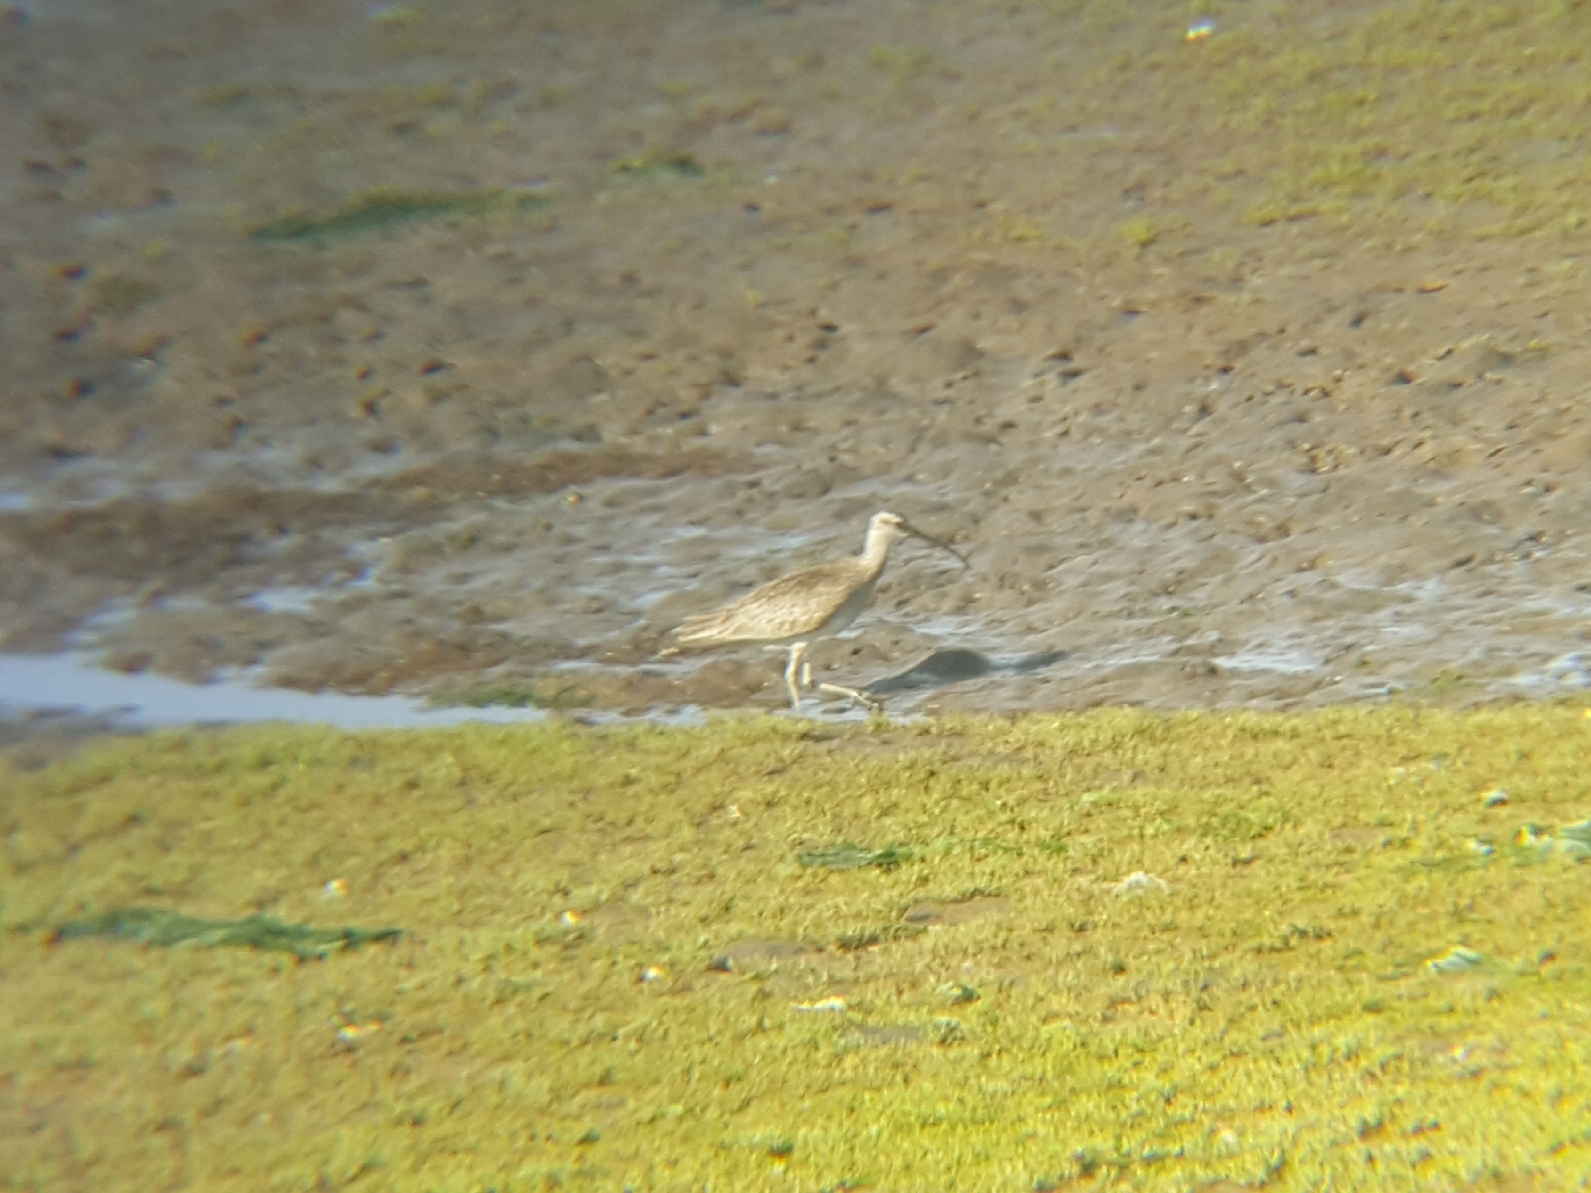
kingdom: Animalia
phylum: Chordata
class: Aves
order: Charadriiformes
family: Scolopacidae
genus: Numenius
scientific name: Numenius phaeopus
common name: Whimbrel
